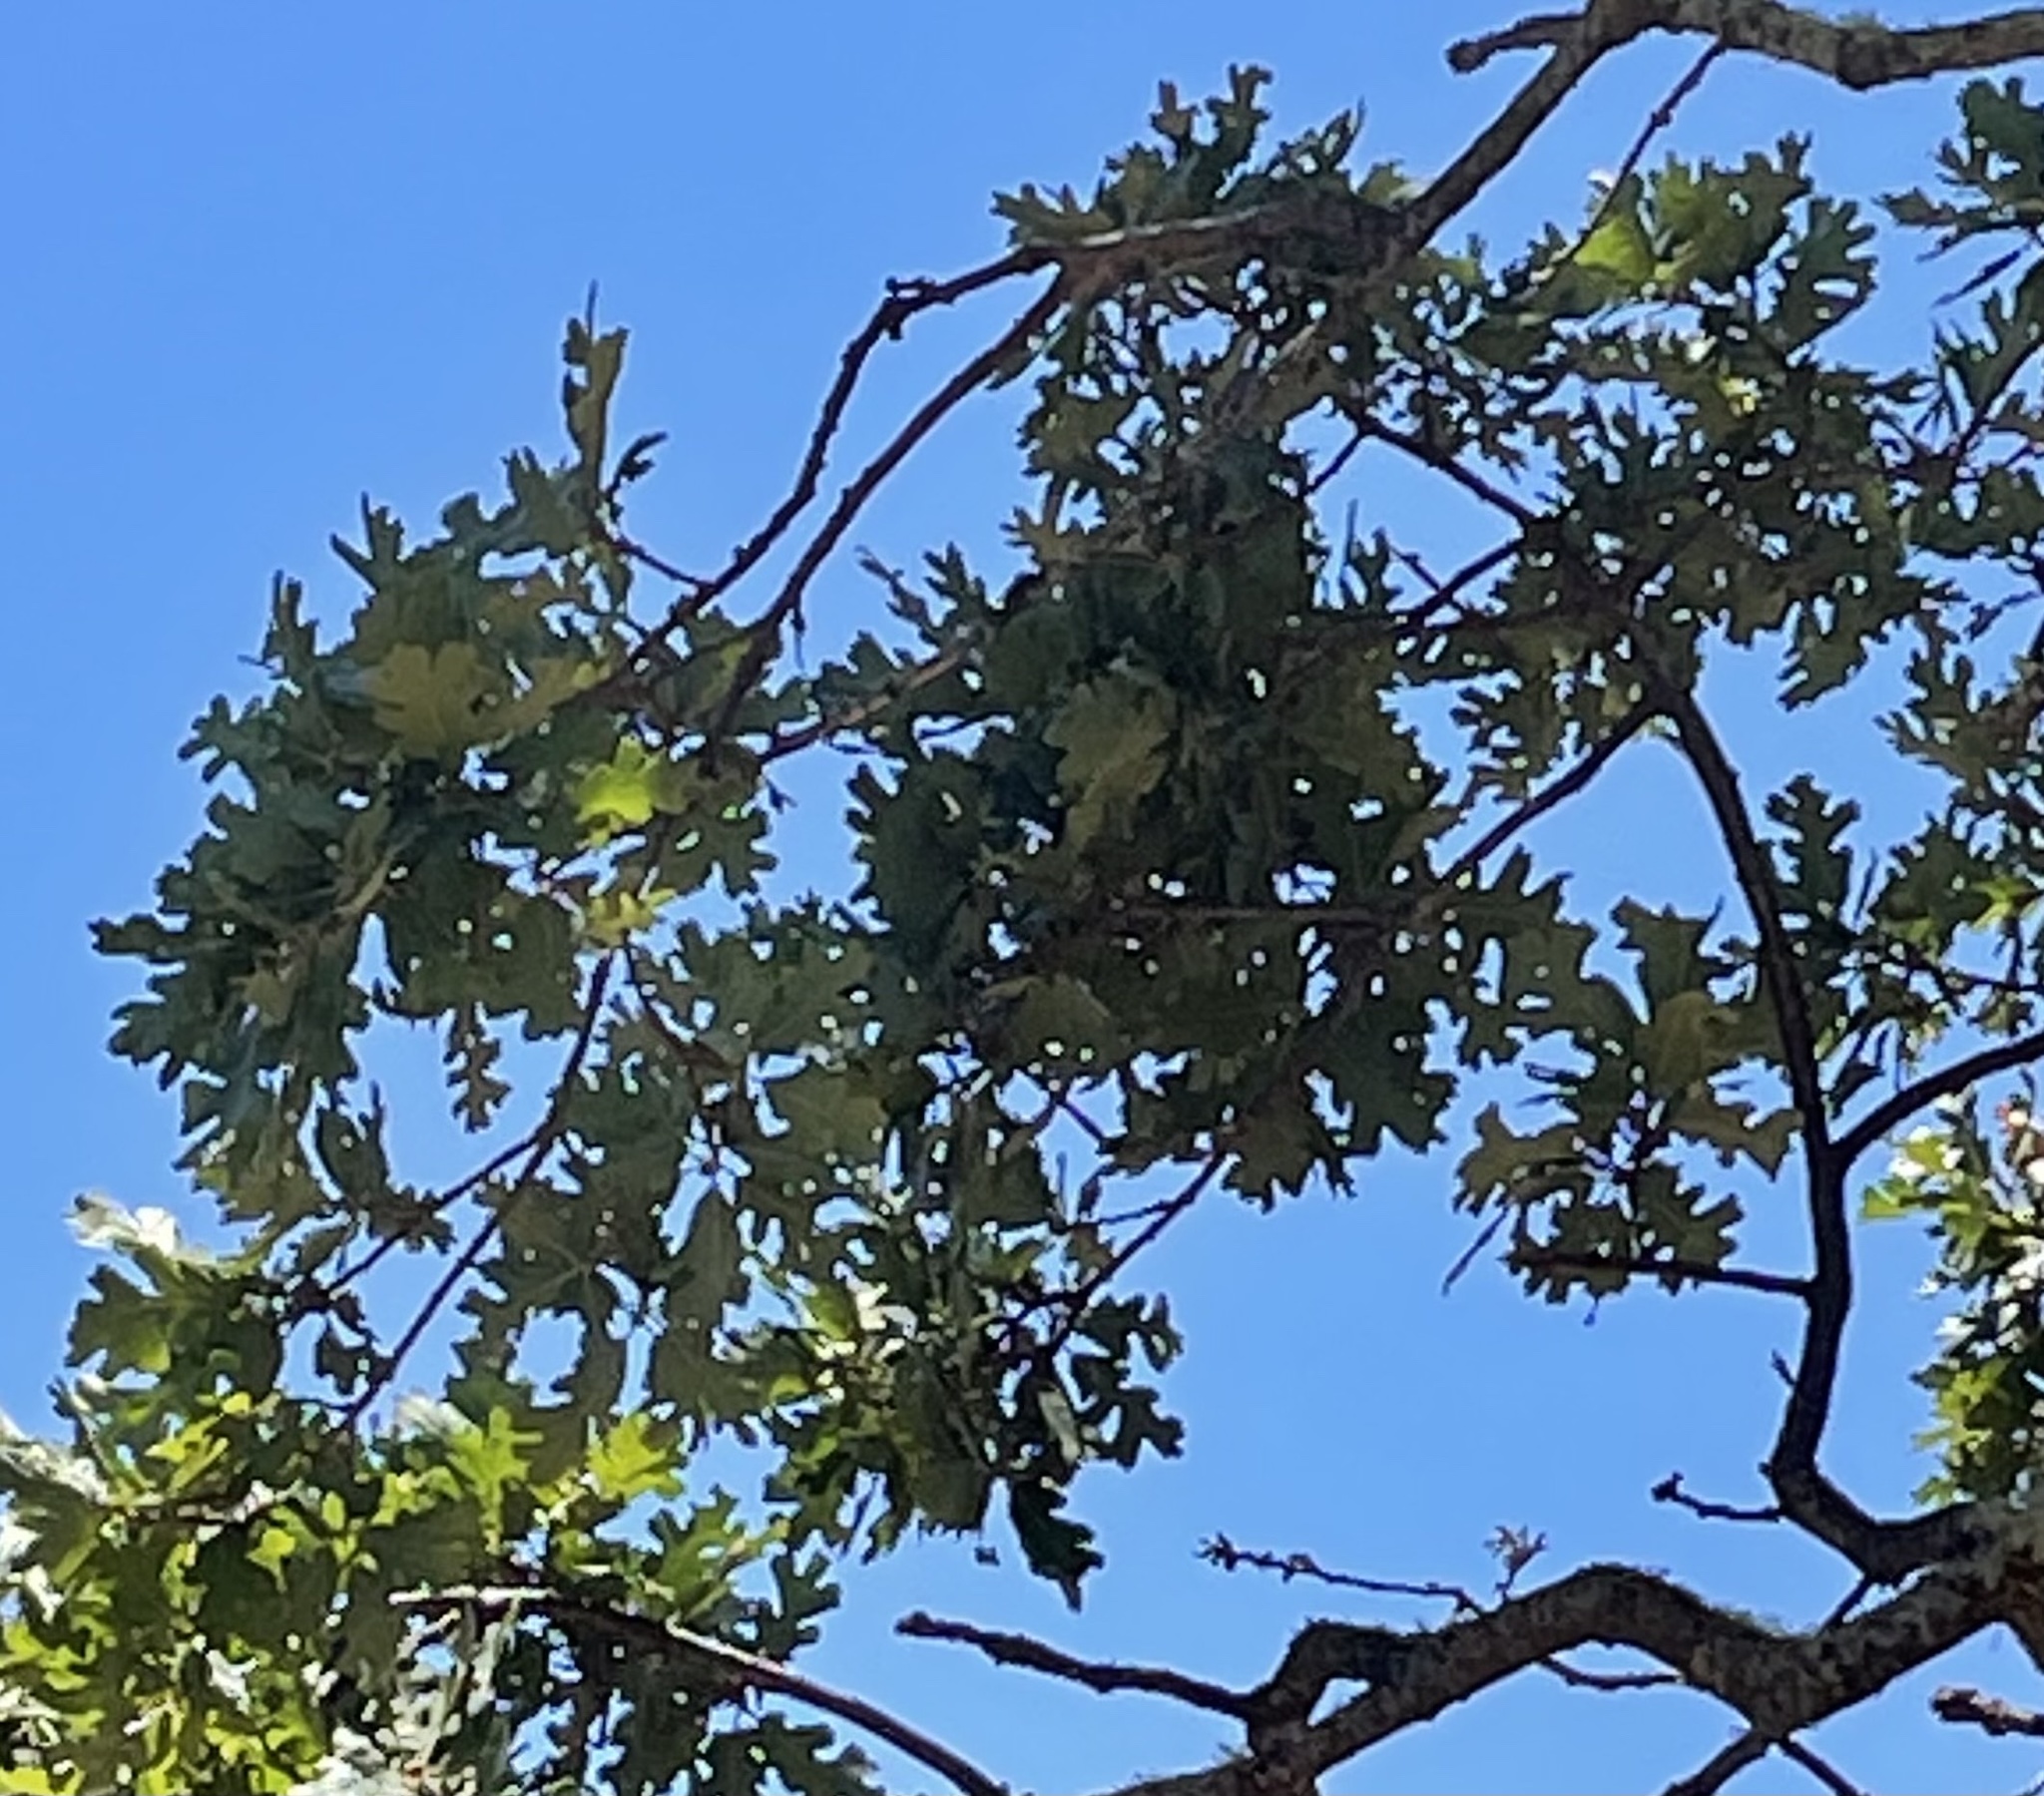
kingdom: Plantae
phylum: Tracheophyta
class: Magnoliopsida
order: Fagales
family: Fagaceae
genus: Quercus
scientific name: Quercus lobata
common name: Valley oak
